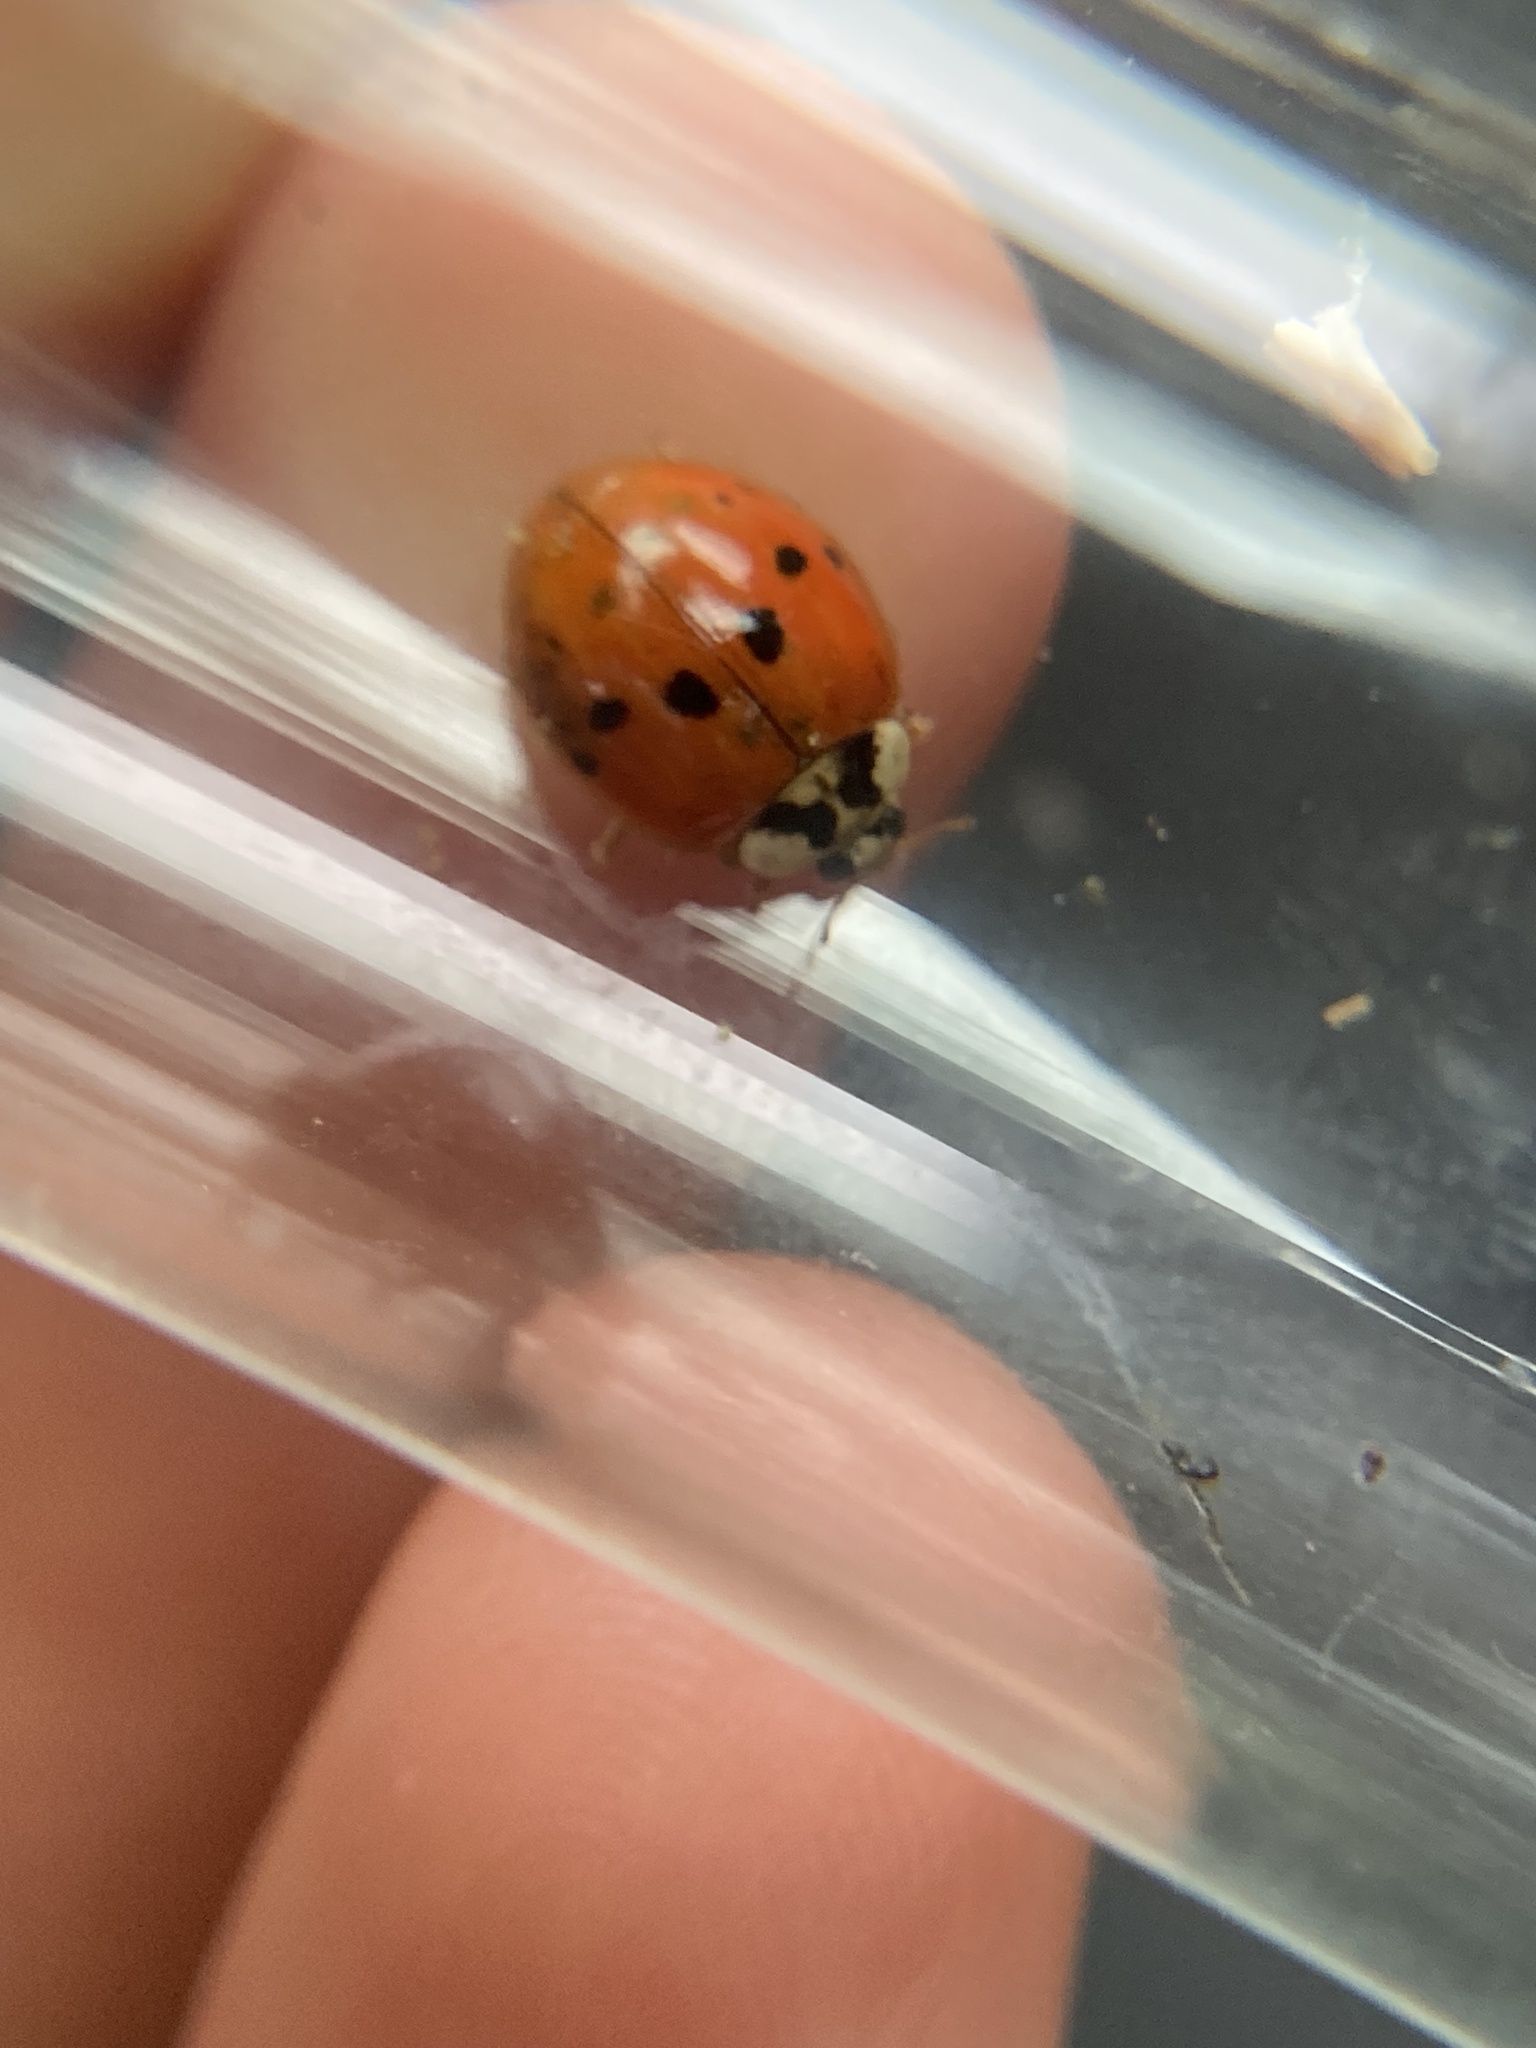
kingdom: Animalia
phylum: Arthropoda
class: Insecta
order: Coleoptera
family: Coccinellidae
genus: Harmonia
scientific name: Harmonia axyridis
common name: Harlequin ladybird
